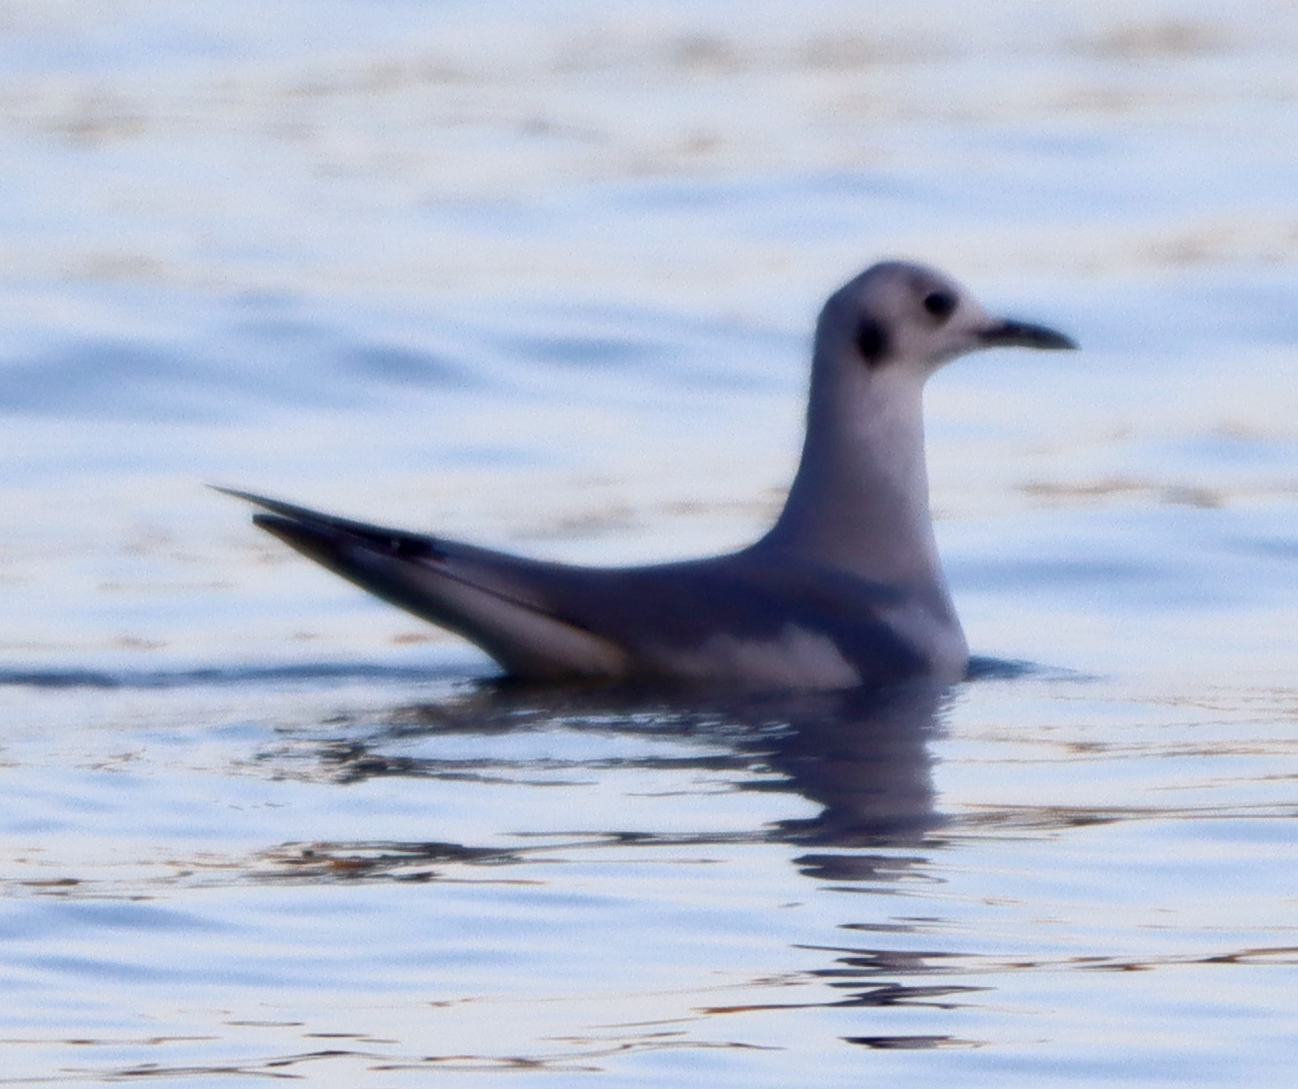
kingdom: Animalia
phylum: Chordata
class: Aves
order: Charadriiformes
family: Laridae
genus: Chroicocephalus
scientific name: Chroicocephalus philadelphia
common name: Bonaparte's gull
